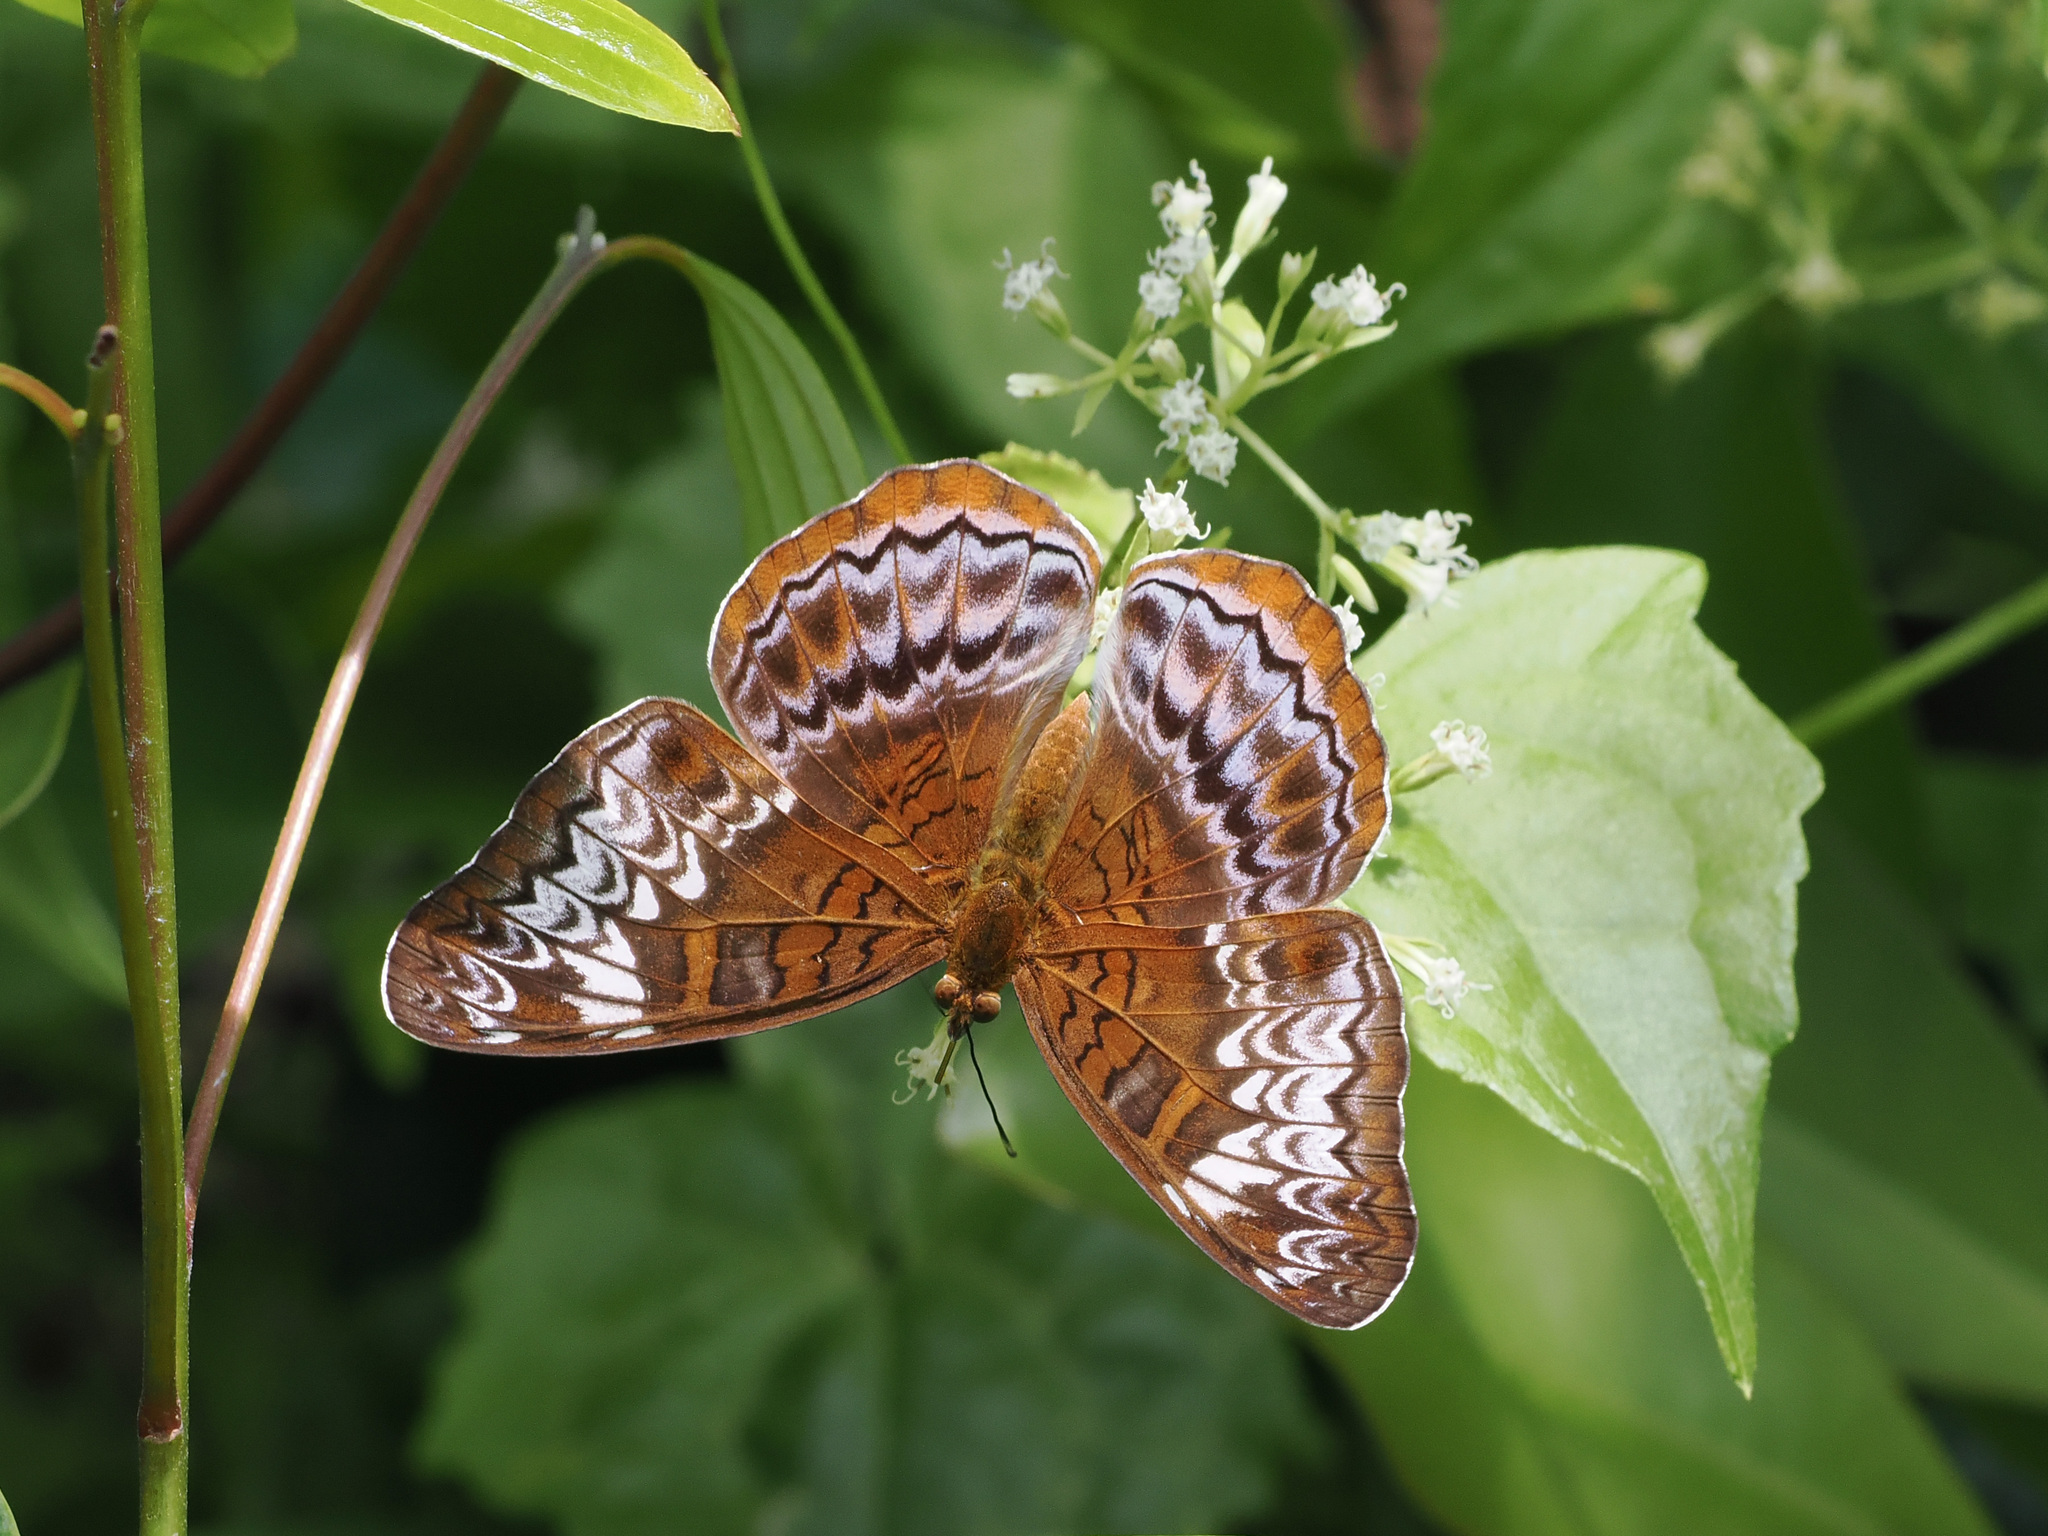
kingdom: Animalia
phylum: Arthropoda
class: Insecta
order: Lepidoptera
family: Nymphalidae
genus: Lebadea
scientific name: Lebadea martha
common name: Knight
